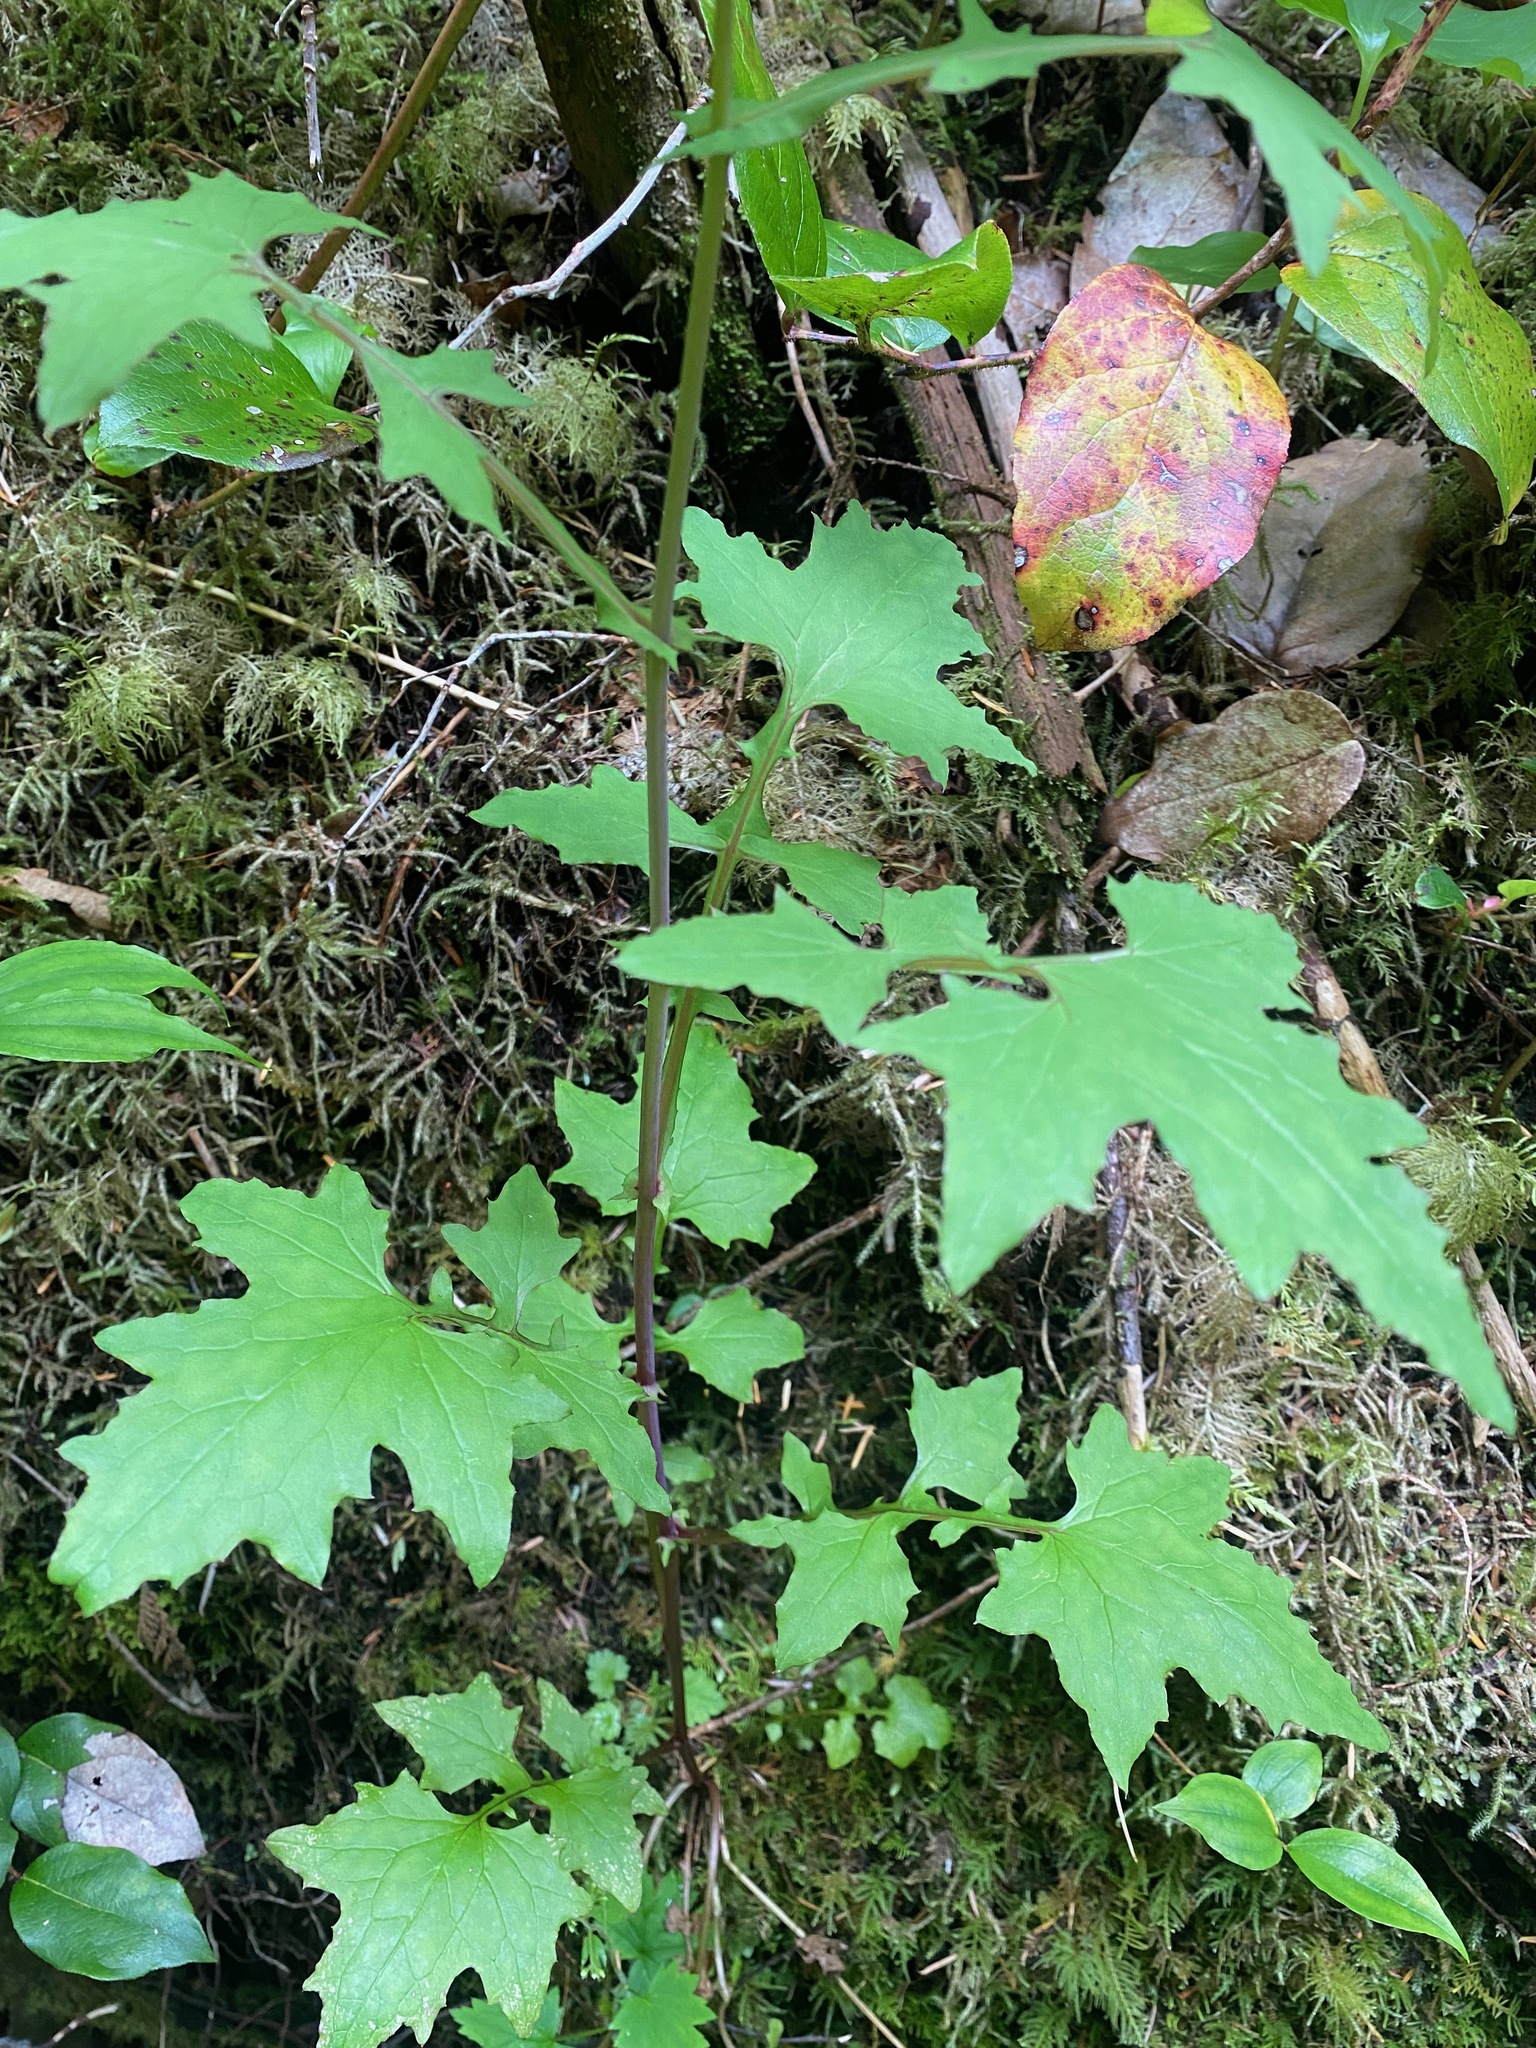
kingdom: Plantae
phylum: Tracheophyta
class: Magnoliopsida
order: Asterales
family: Asteraceae
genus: Mycelis
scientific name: Mycelis muralis
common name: Wall lettuce
